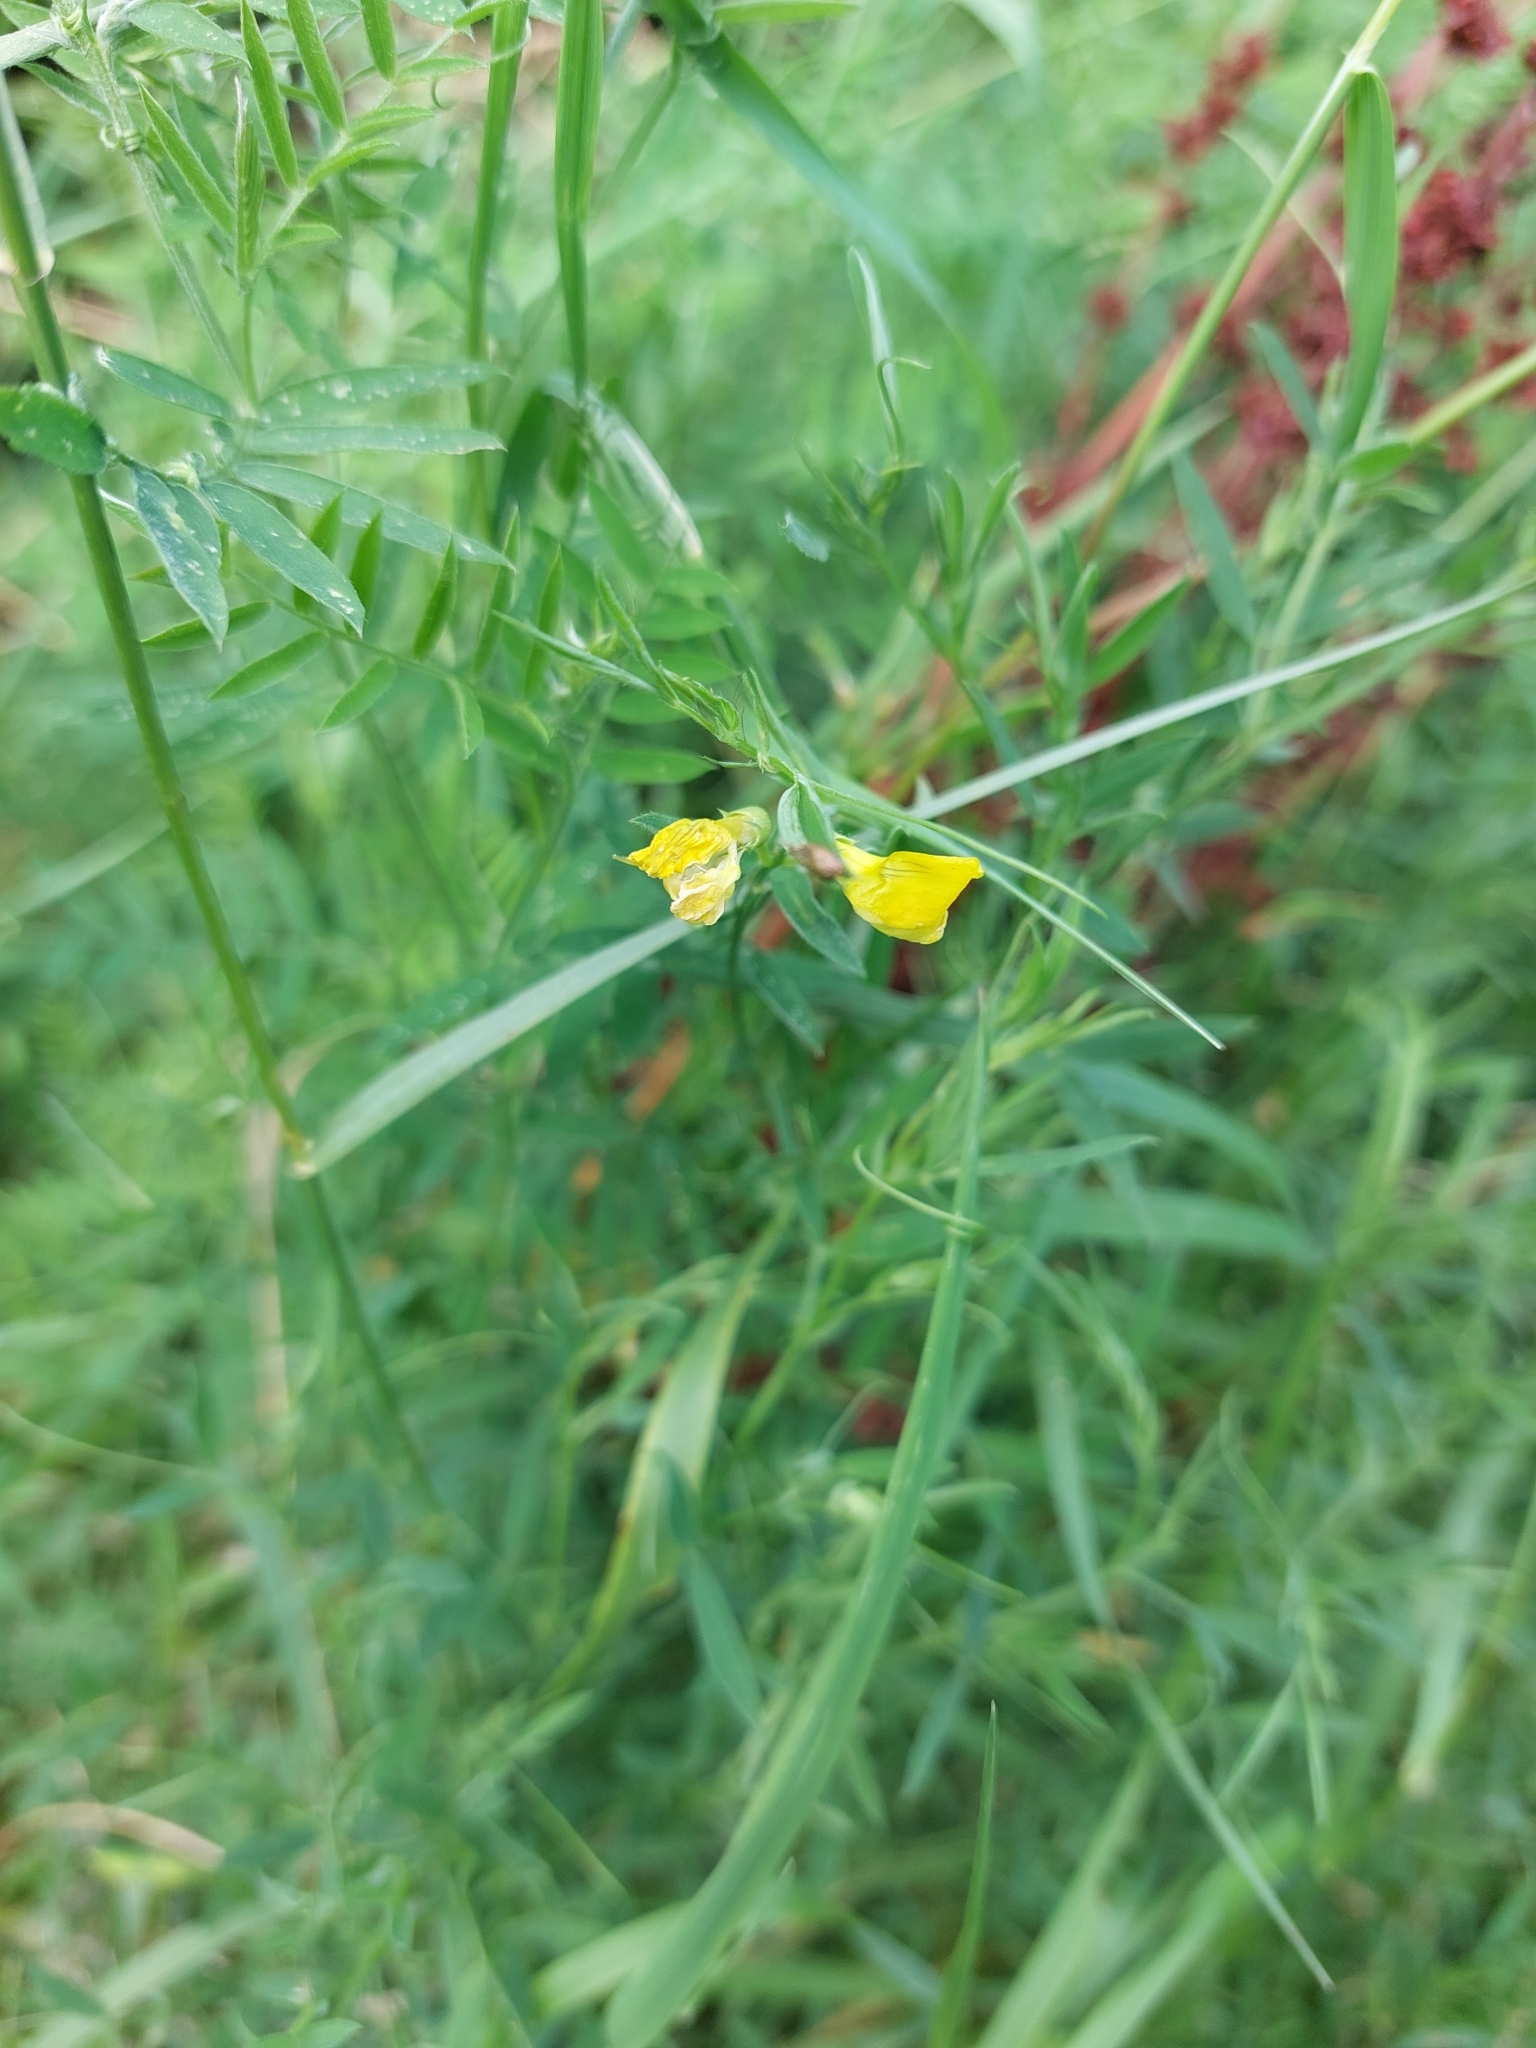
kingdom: Plantae
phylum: Tracheophyta
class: Magnoliopsida
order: Fabales
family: Fabaceae
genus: Lathyrus
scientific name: Lathyrus pratensis
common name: Meadow vetchling
